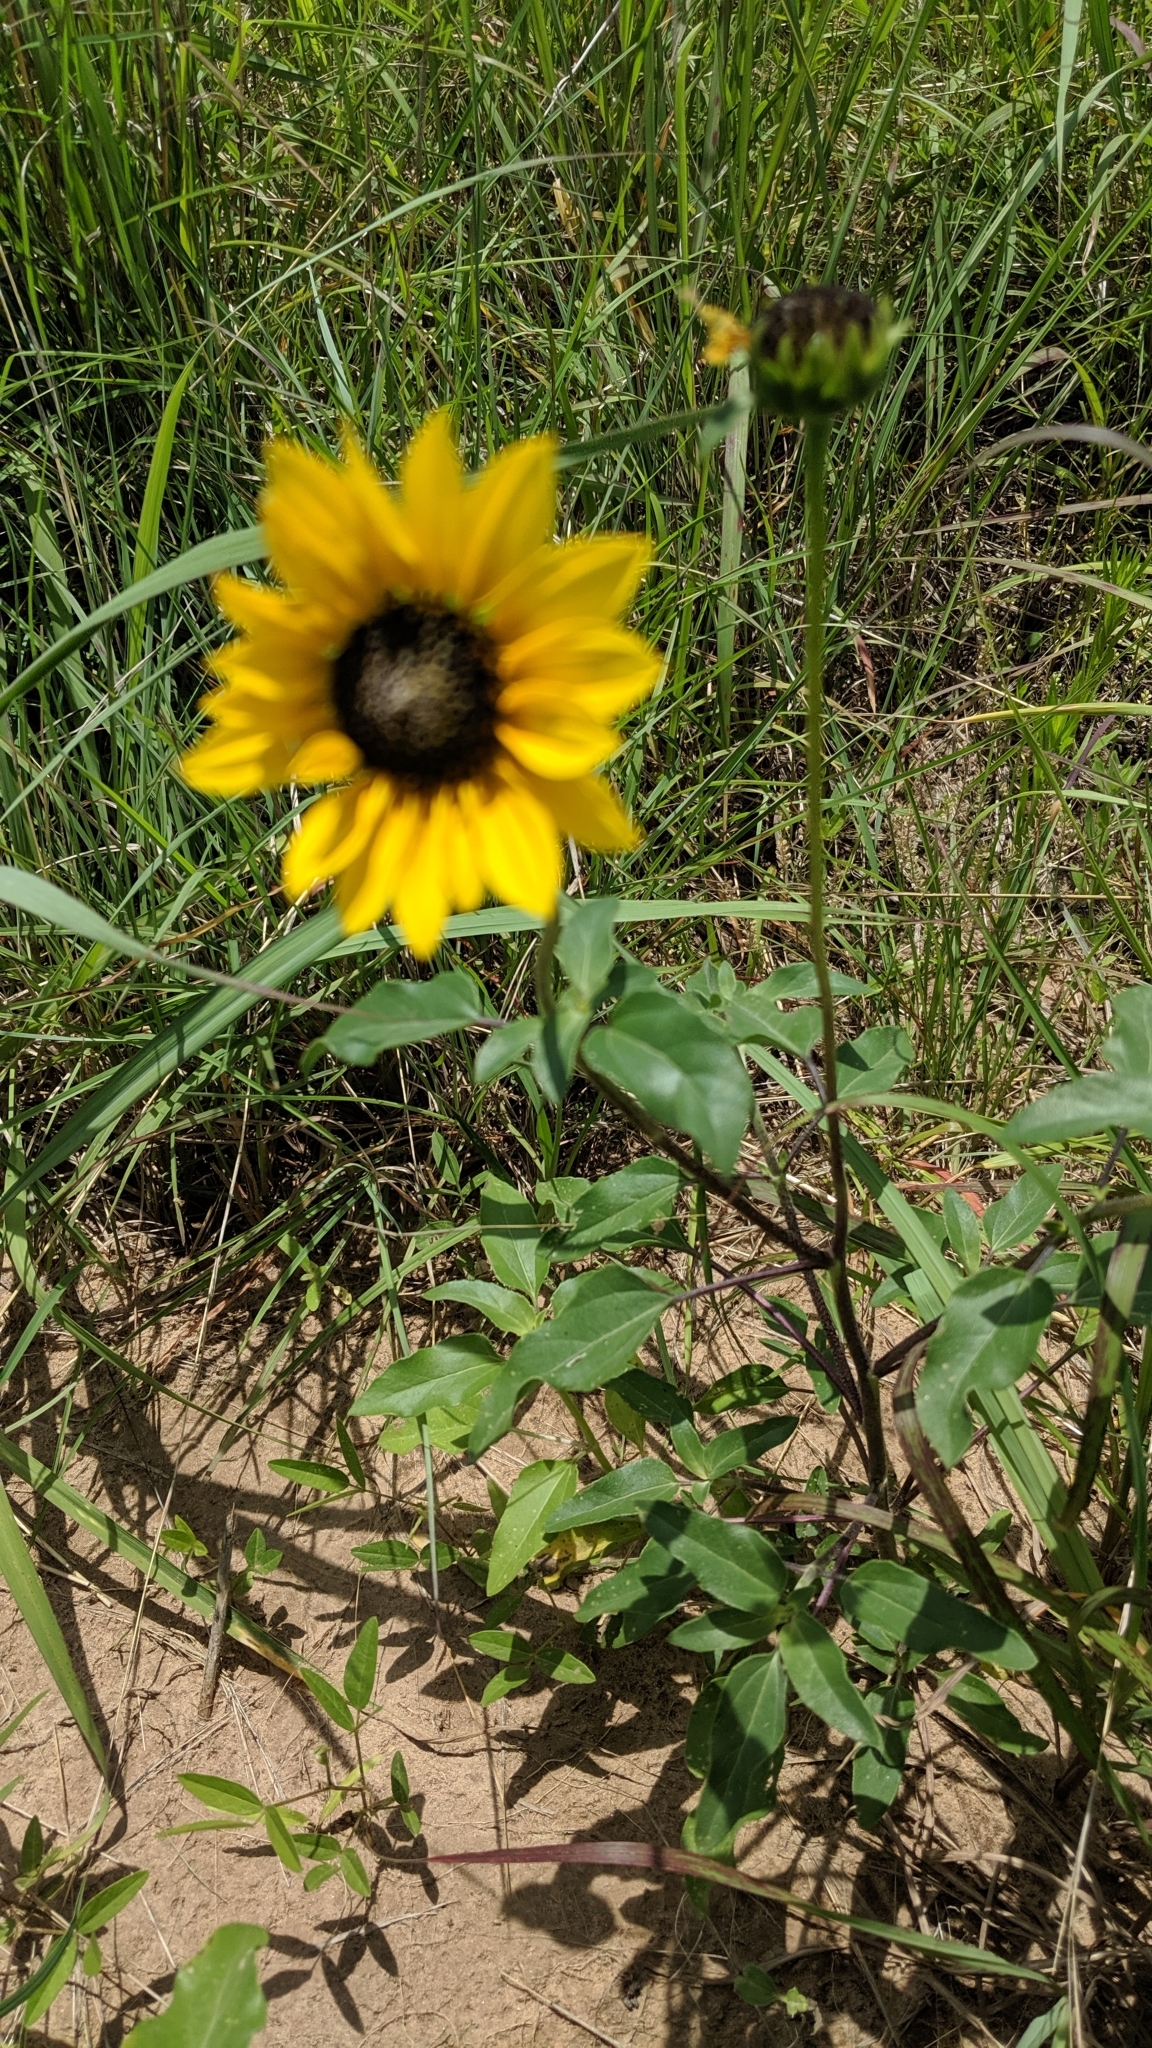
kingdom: Plantae
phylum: Tracheophyta
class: Magnoliopsida
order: Asterales
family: Asteraceae
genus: Helianthus
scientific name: Helianthus petiolaris
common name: Lesser sunflower
